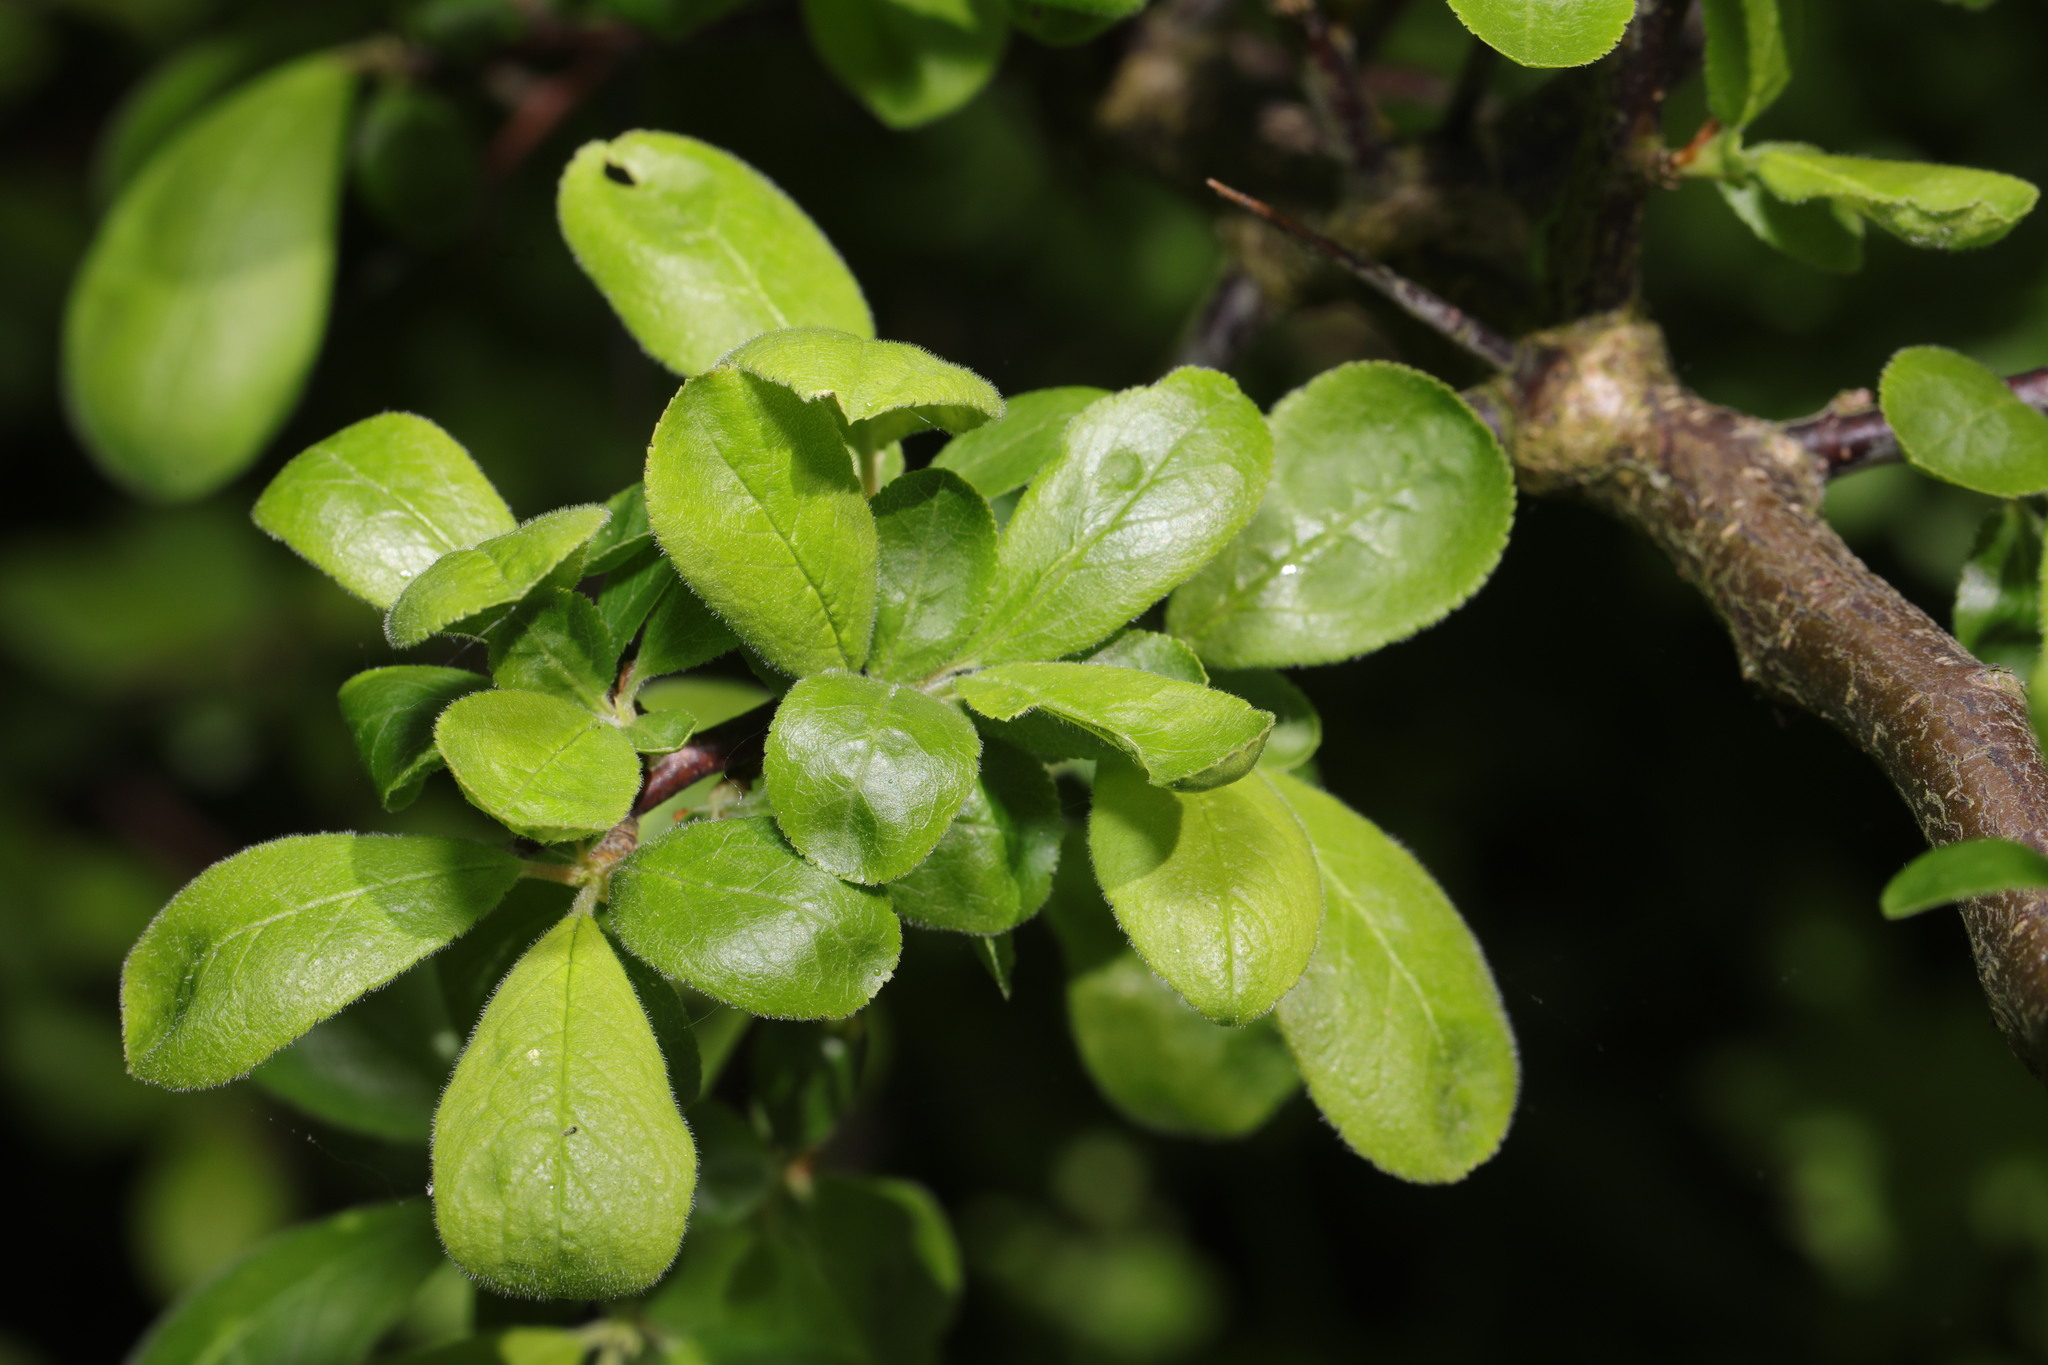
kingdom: Plantae
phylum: Tracheophyta
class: Magnoliopsida
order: Rosales
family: Rosaceae
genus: Prunus
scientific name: Prunus spinosa
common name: Blackthorn
